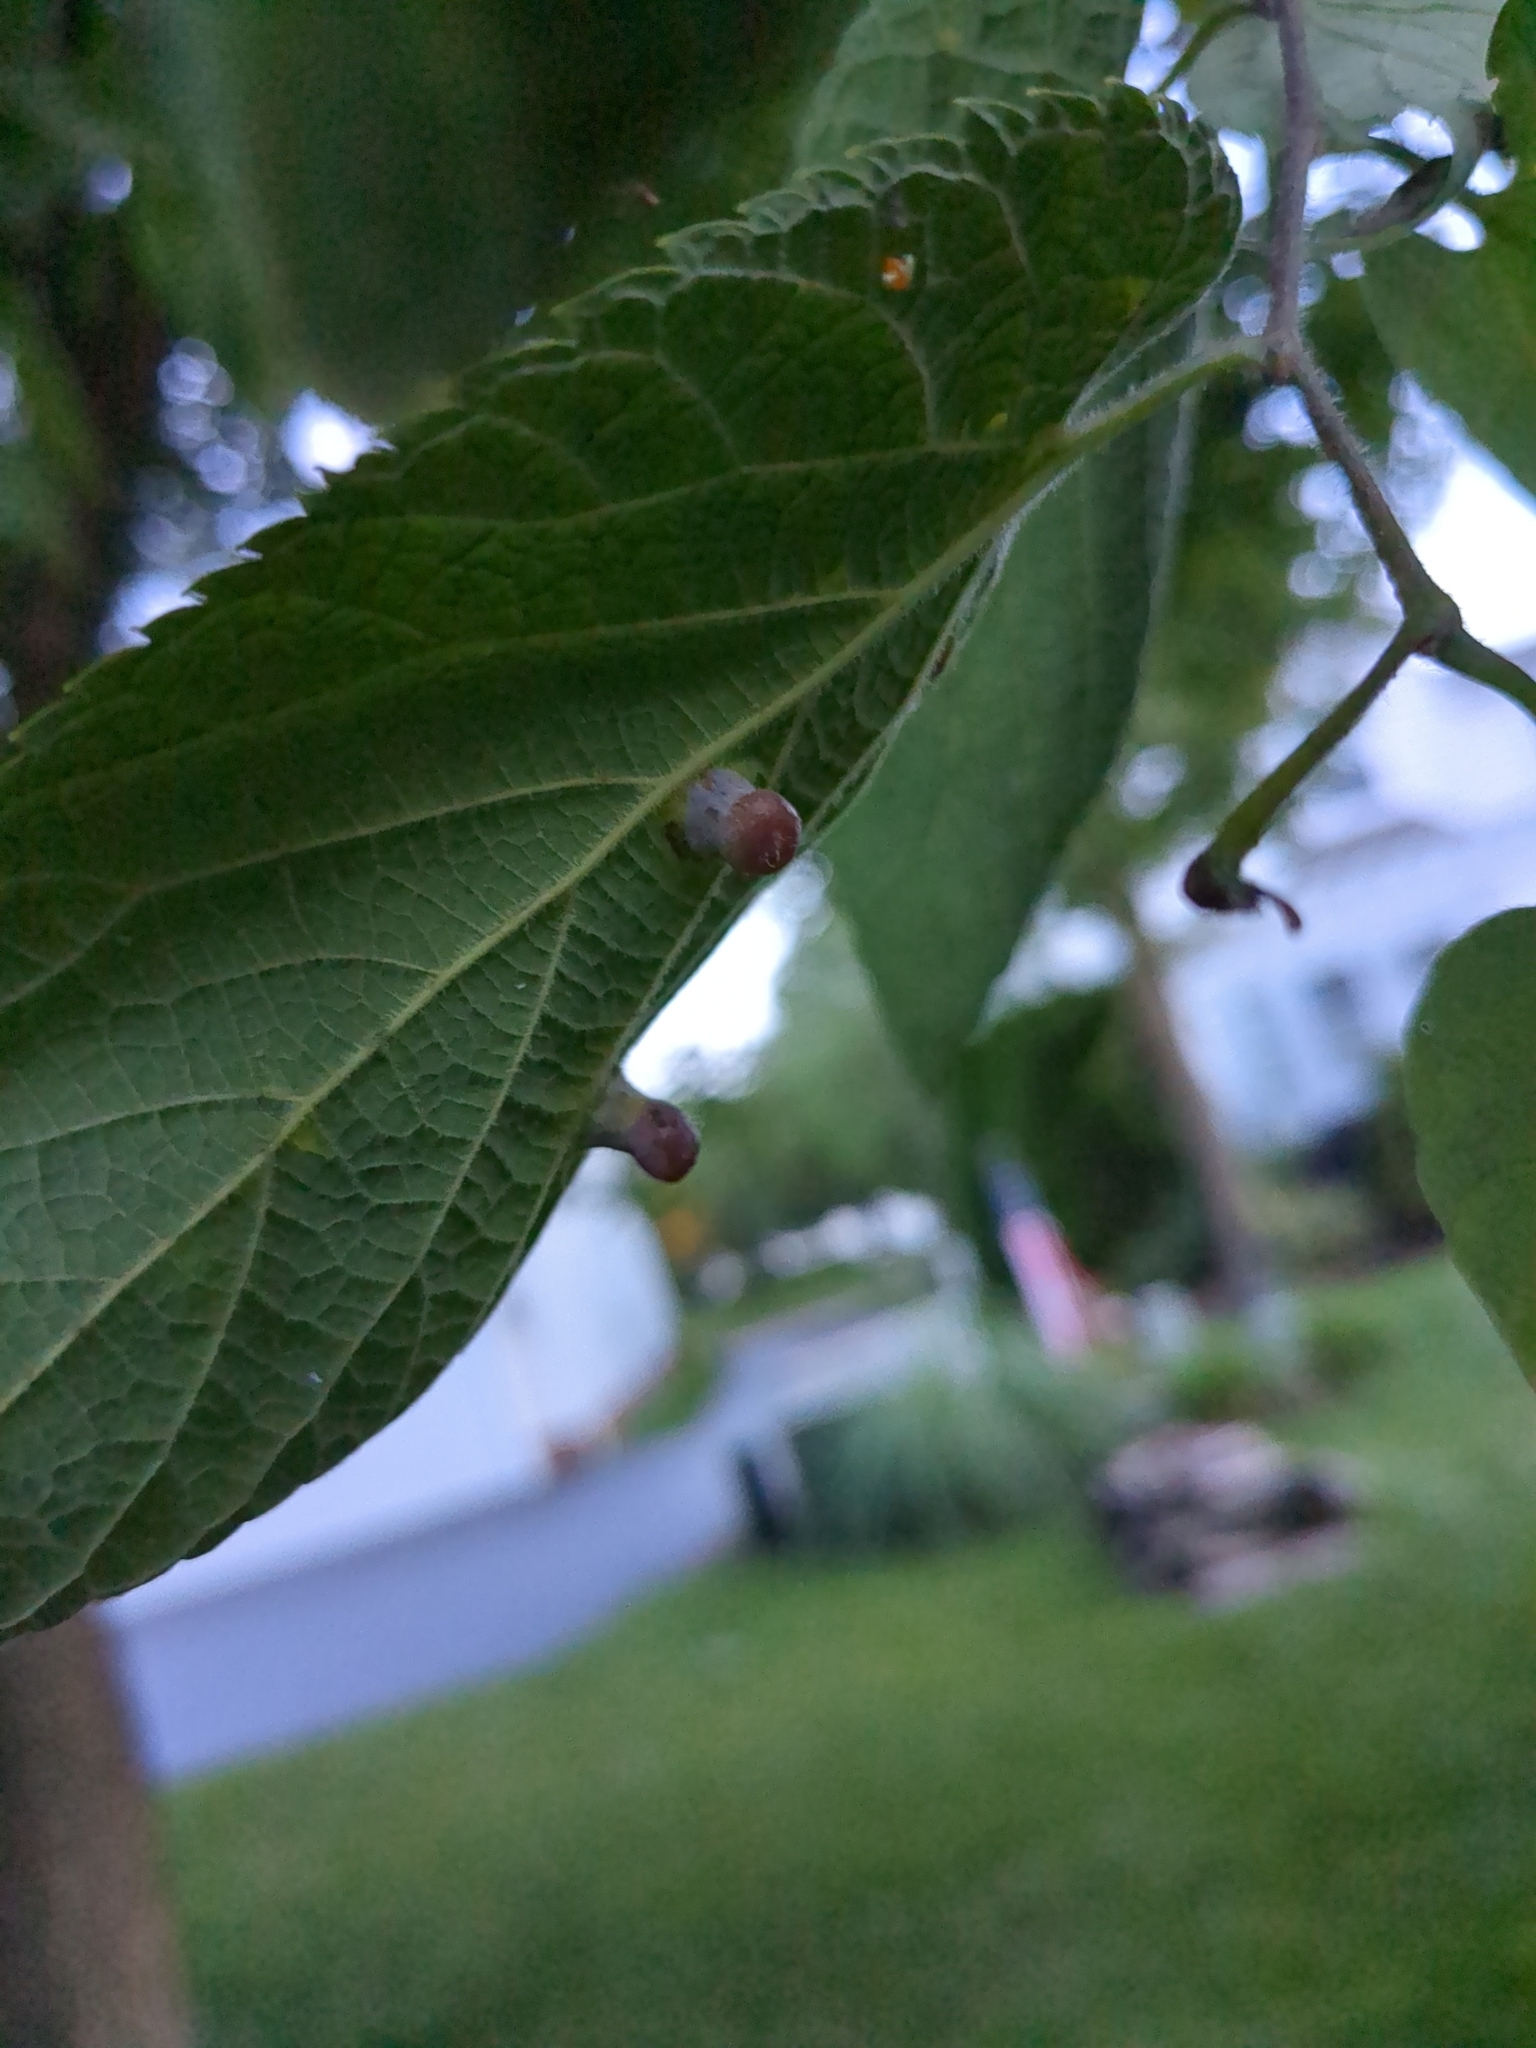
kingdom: Animalia
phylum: Arthropoda
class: Insecta
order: Hemiptera
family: Aphalaridae
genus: Pachypsylla
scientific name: Pachypsylla celtidismamma
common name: Hackberry nipplegall psyllid
